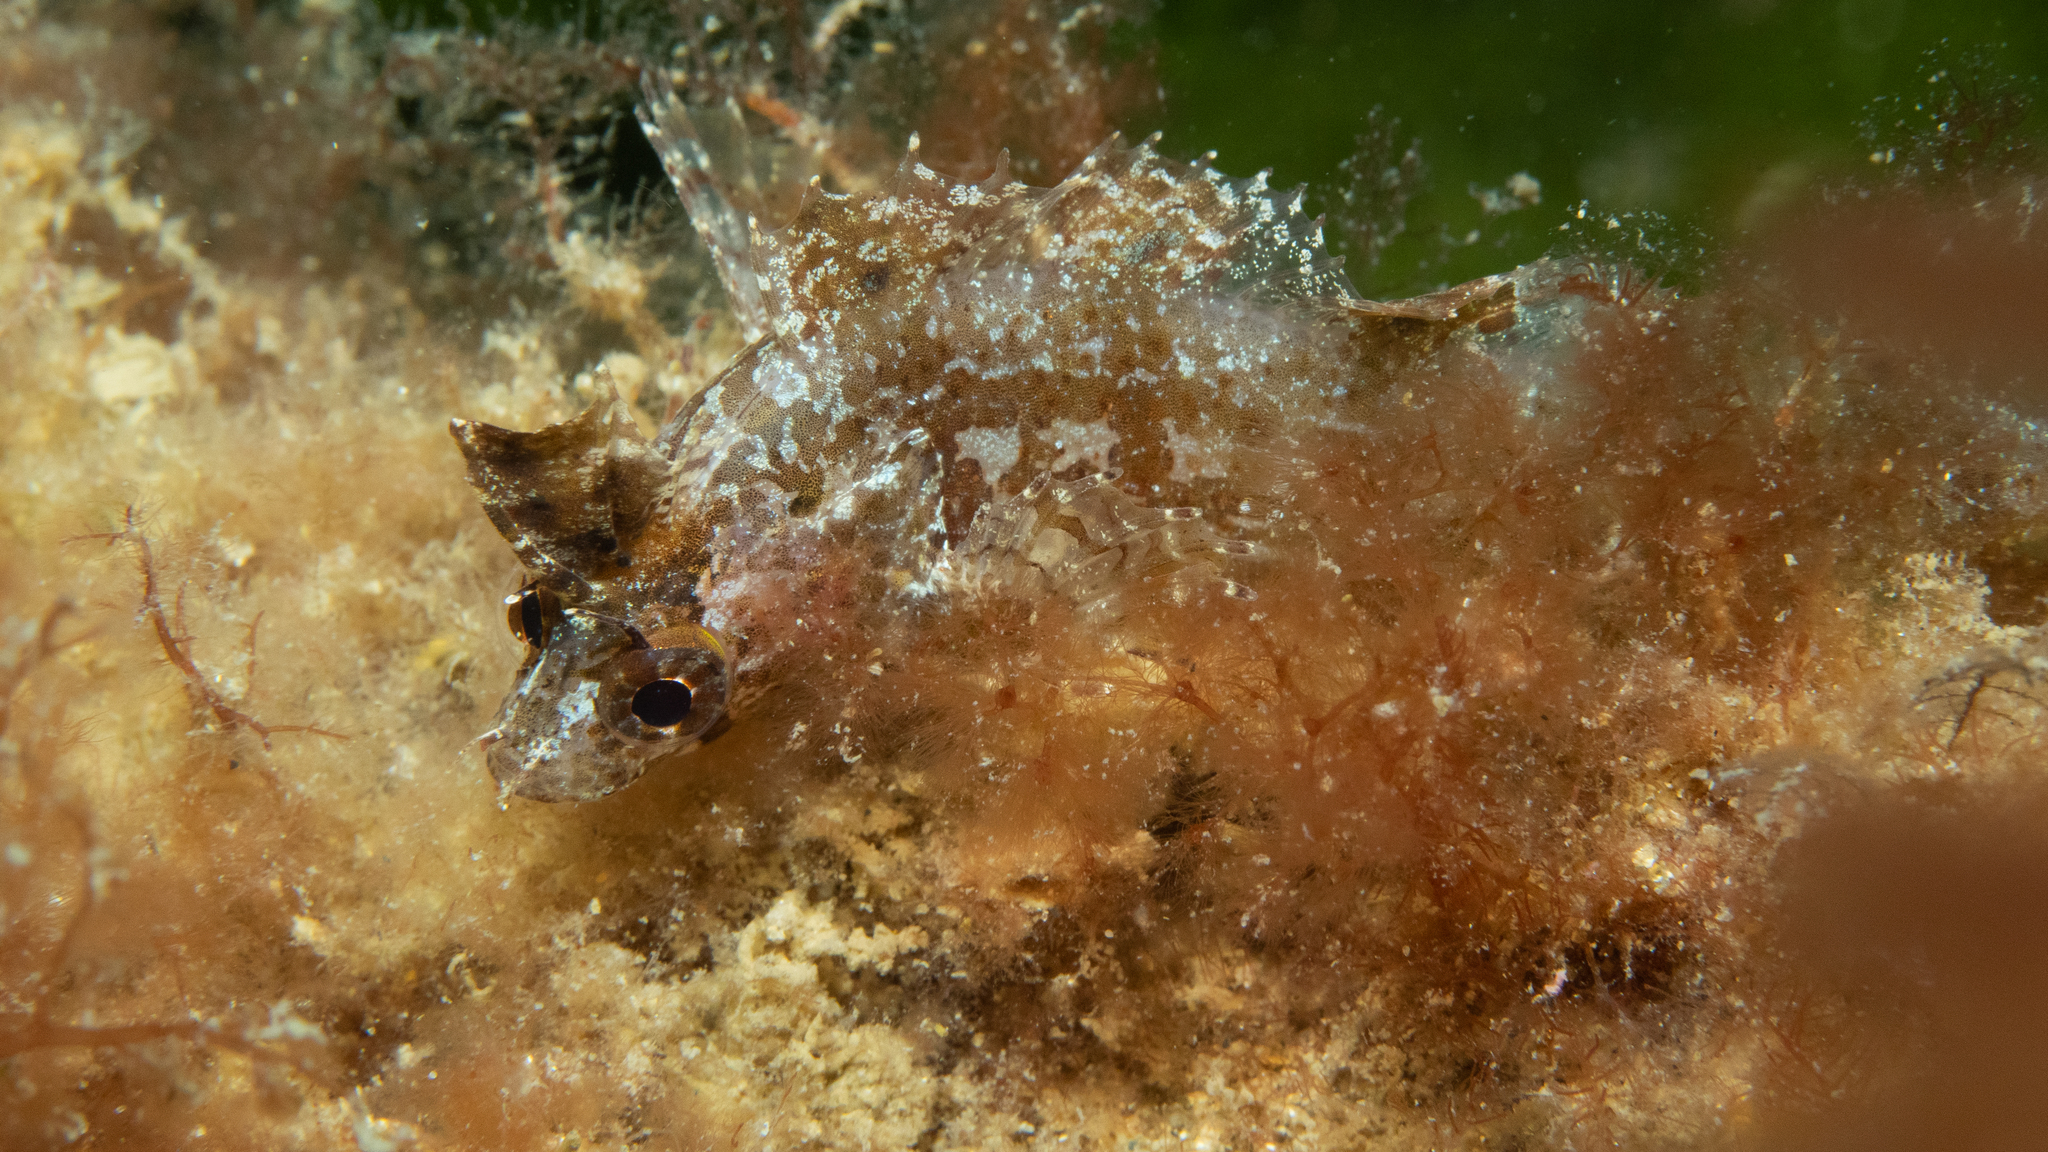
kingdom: Animalia
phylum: Chordata
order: Perciformes
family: Clinidae
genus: Heteroclinus
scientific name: Heteroclinus tristis
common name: Sharp-nose weedfish
